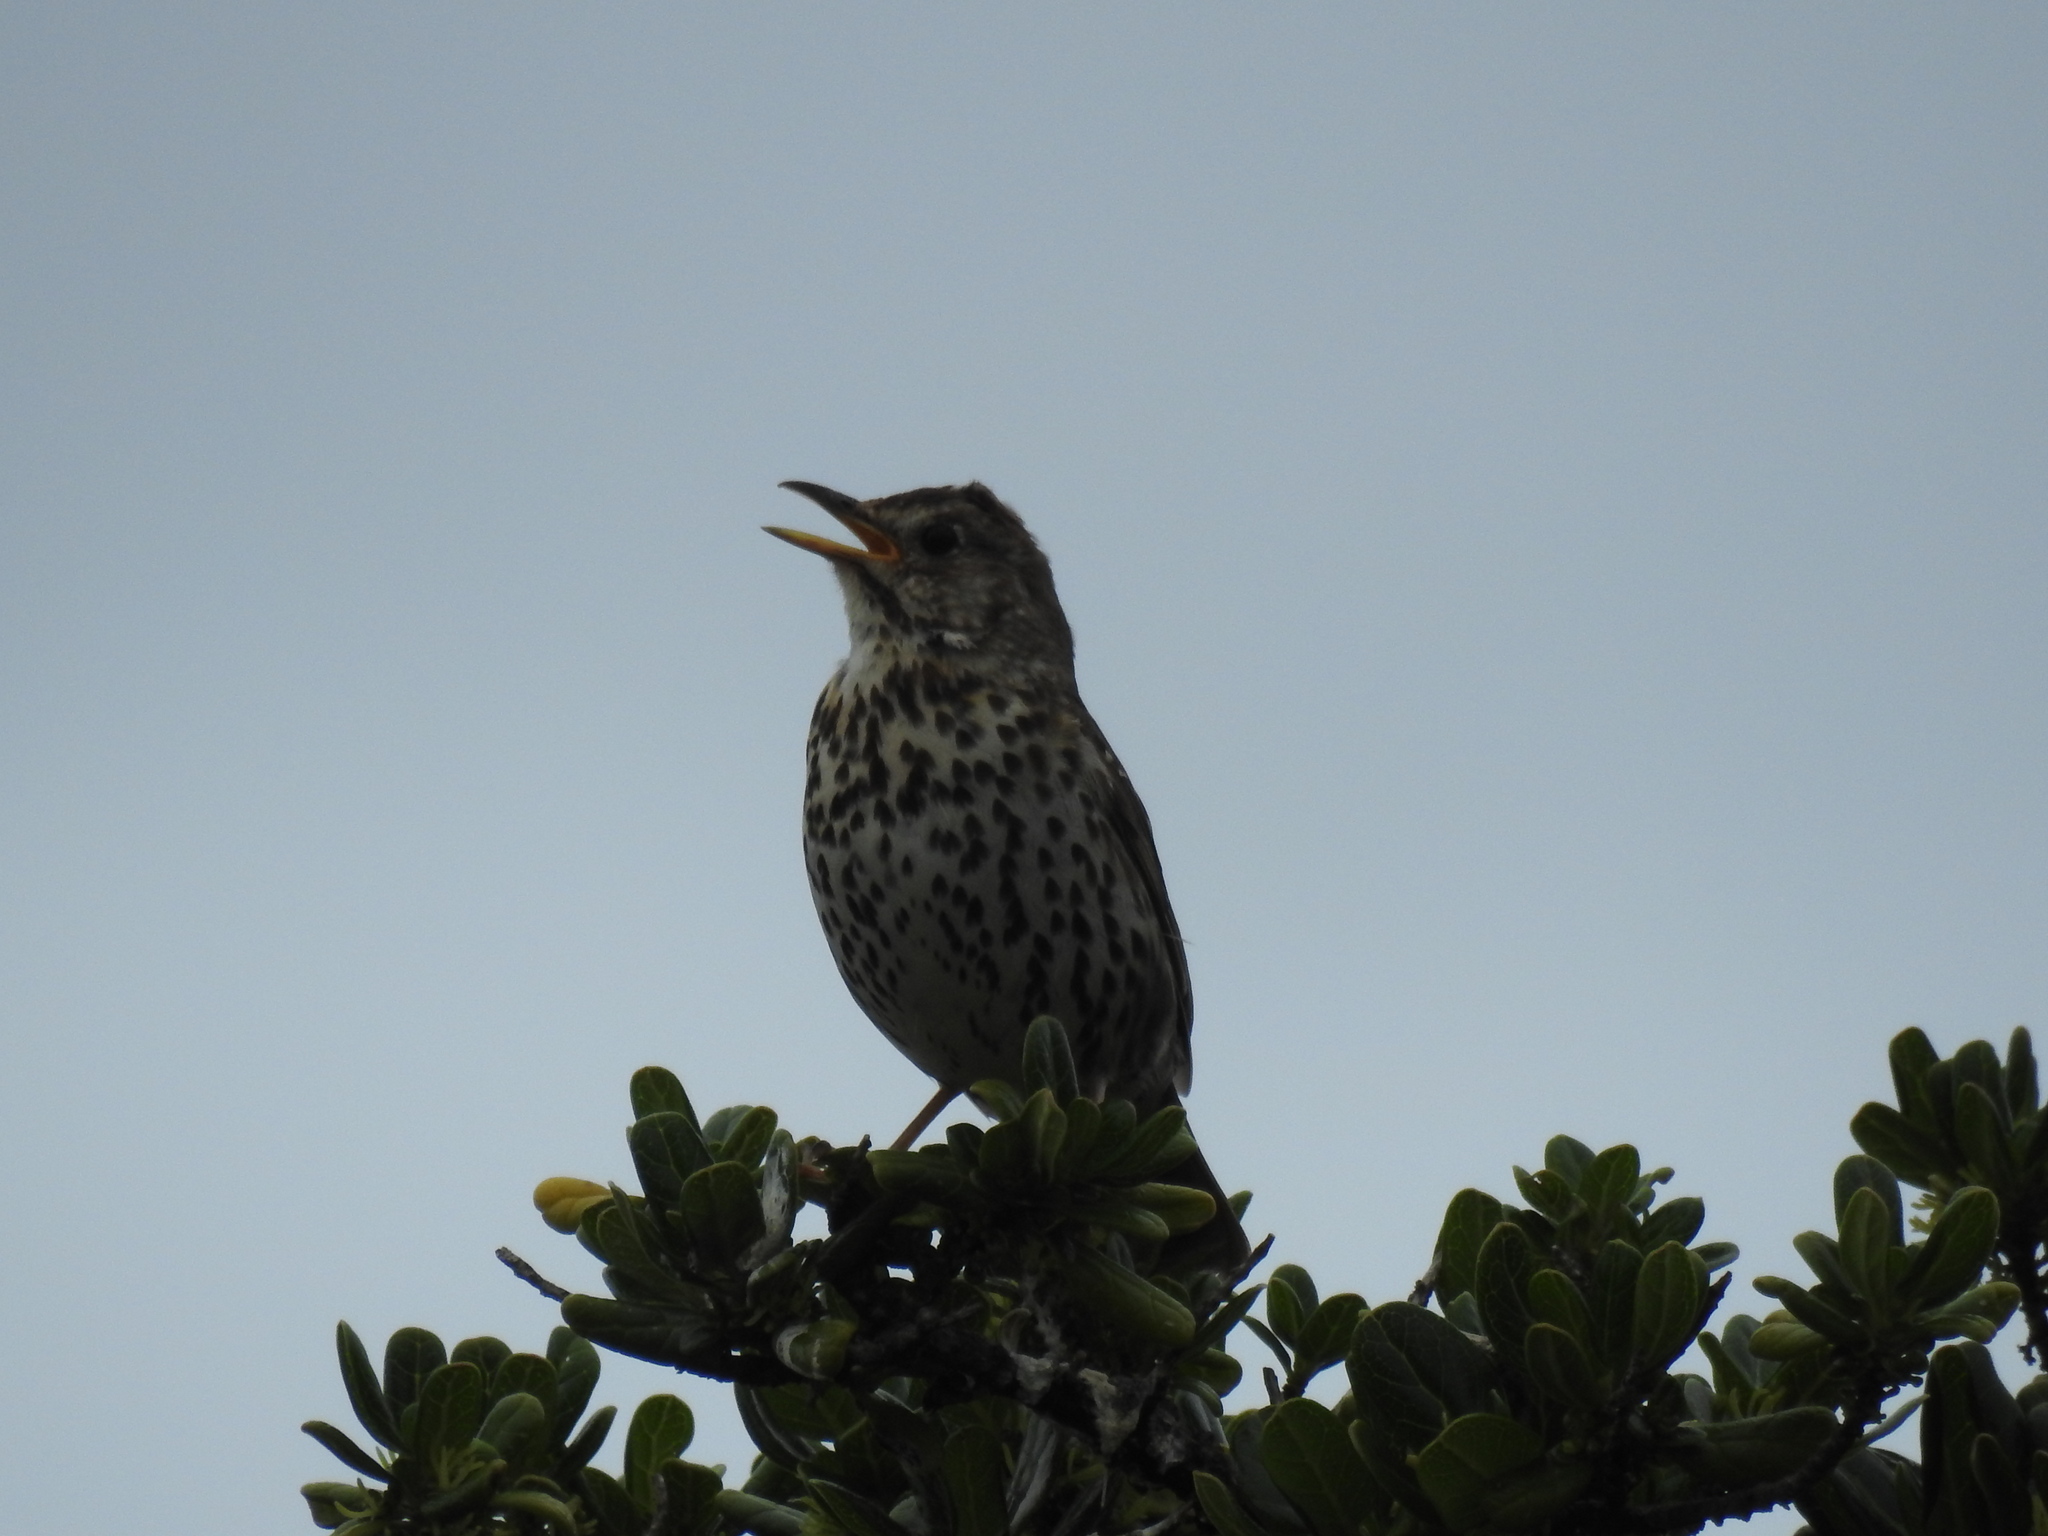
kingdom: Animalia
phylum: Chordata
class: Aves
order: Passeriformes
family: Turdidae
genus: Turdus
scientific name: Turdus philomelos
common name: Song thrush
